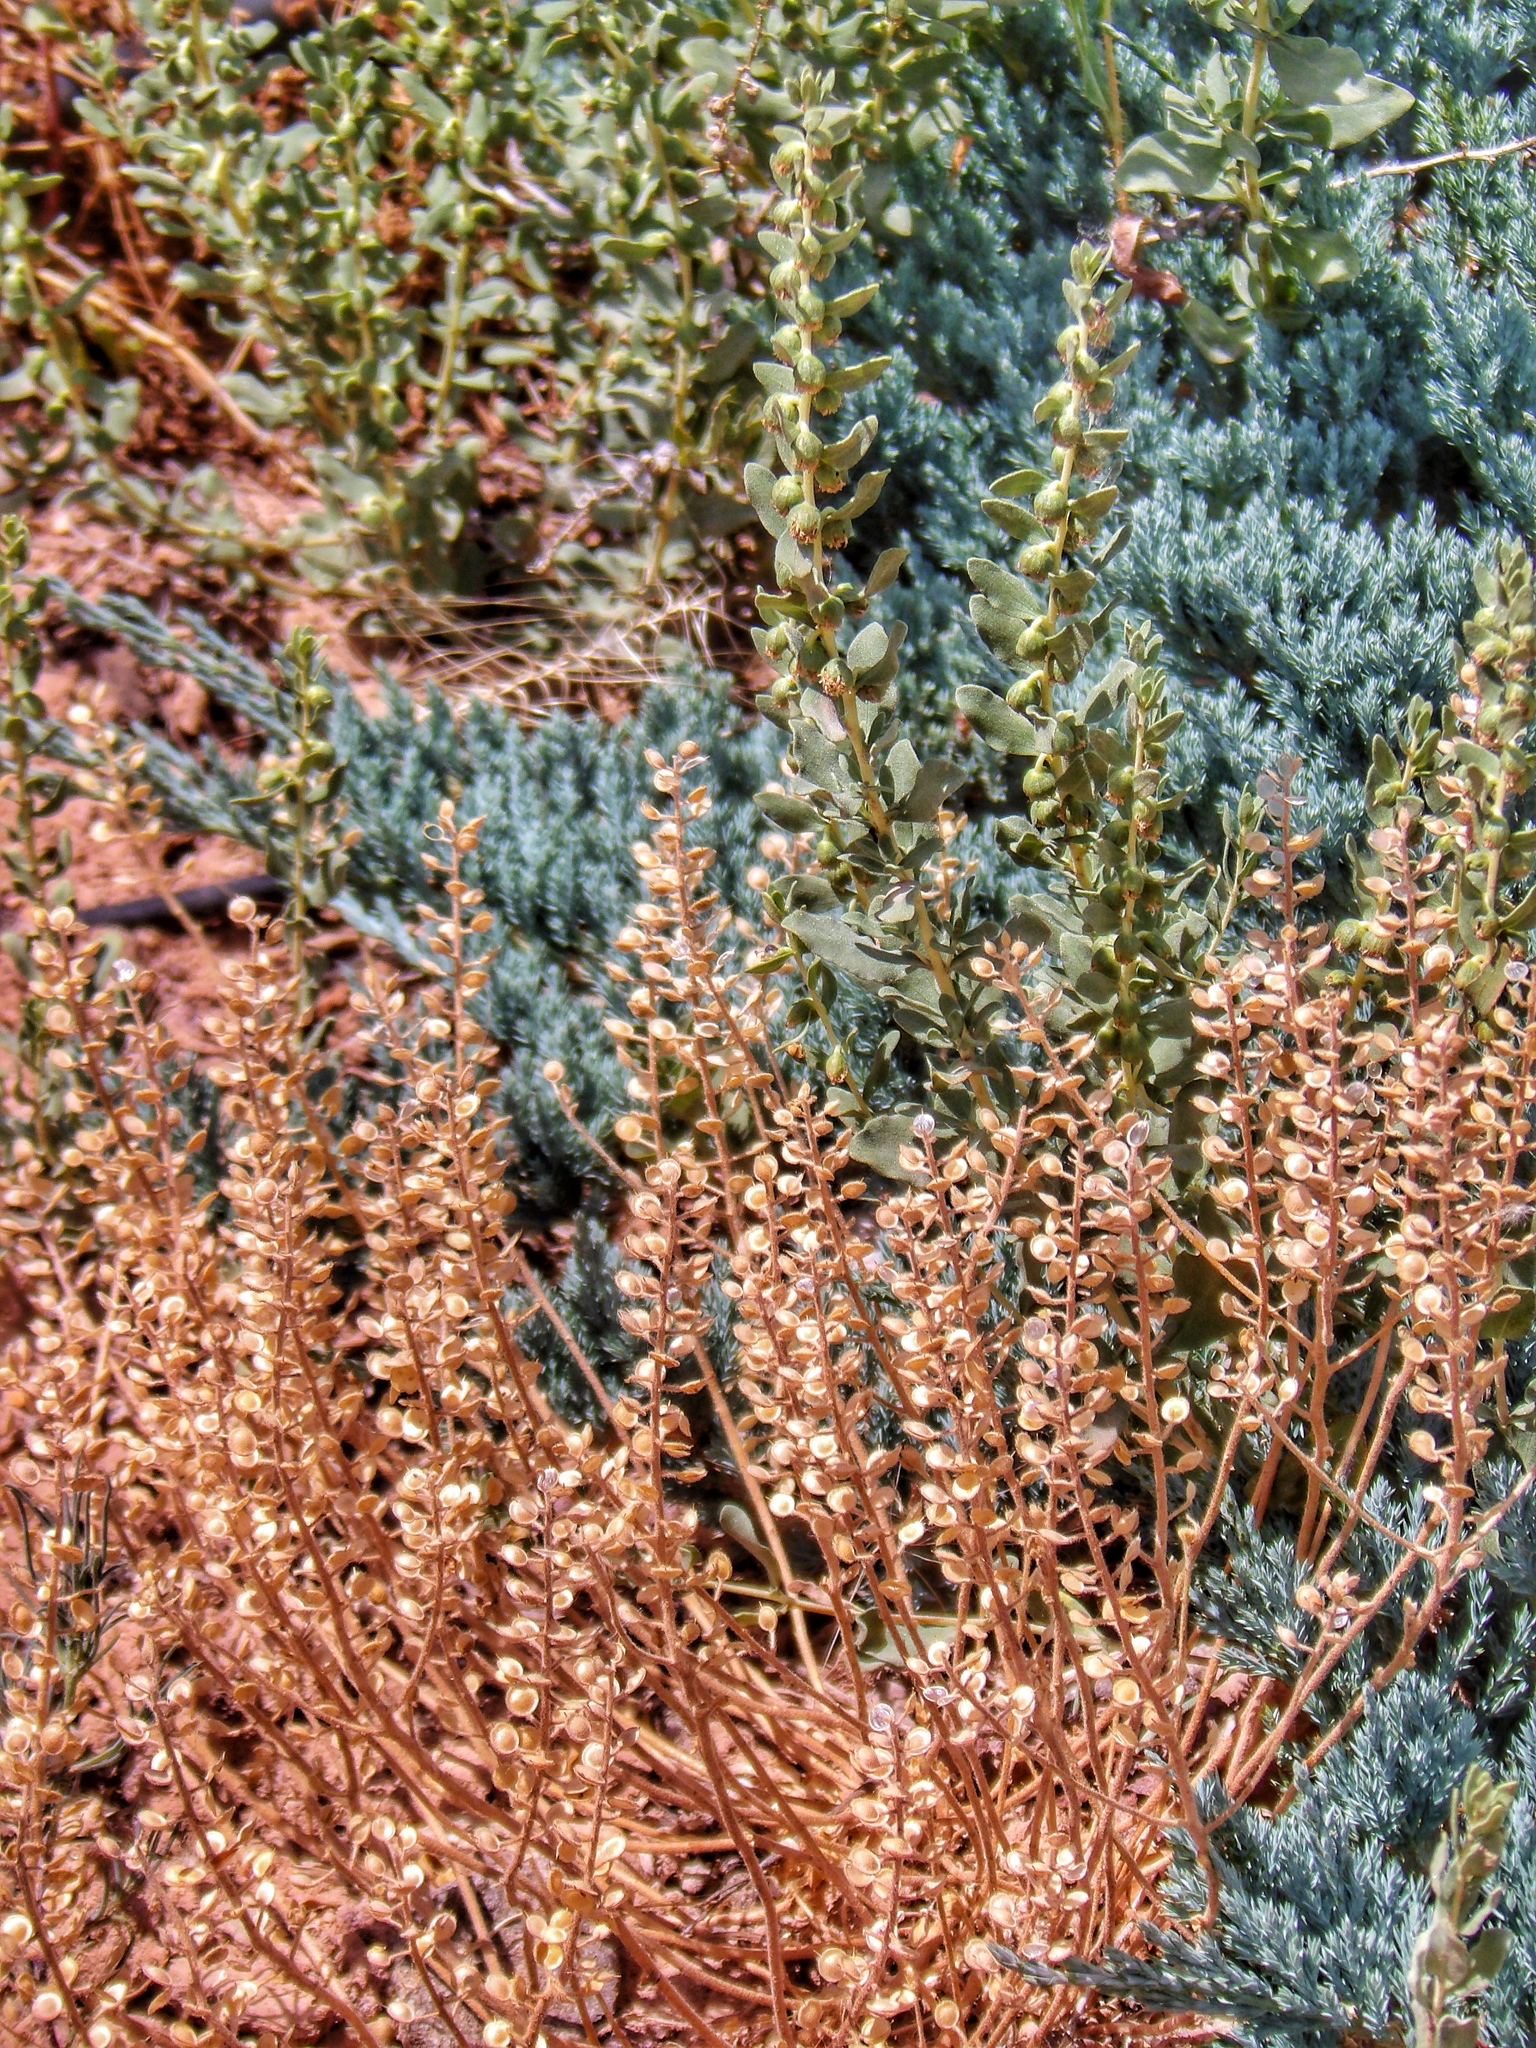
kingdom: Plantae
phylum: Tracheophyta
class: Magnoliopsida
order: Brassicales
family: Brassicaceae
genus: Alyssum
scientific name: Alyssum turkestanicum
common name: Desert alyssum
